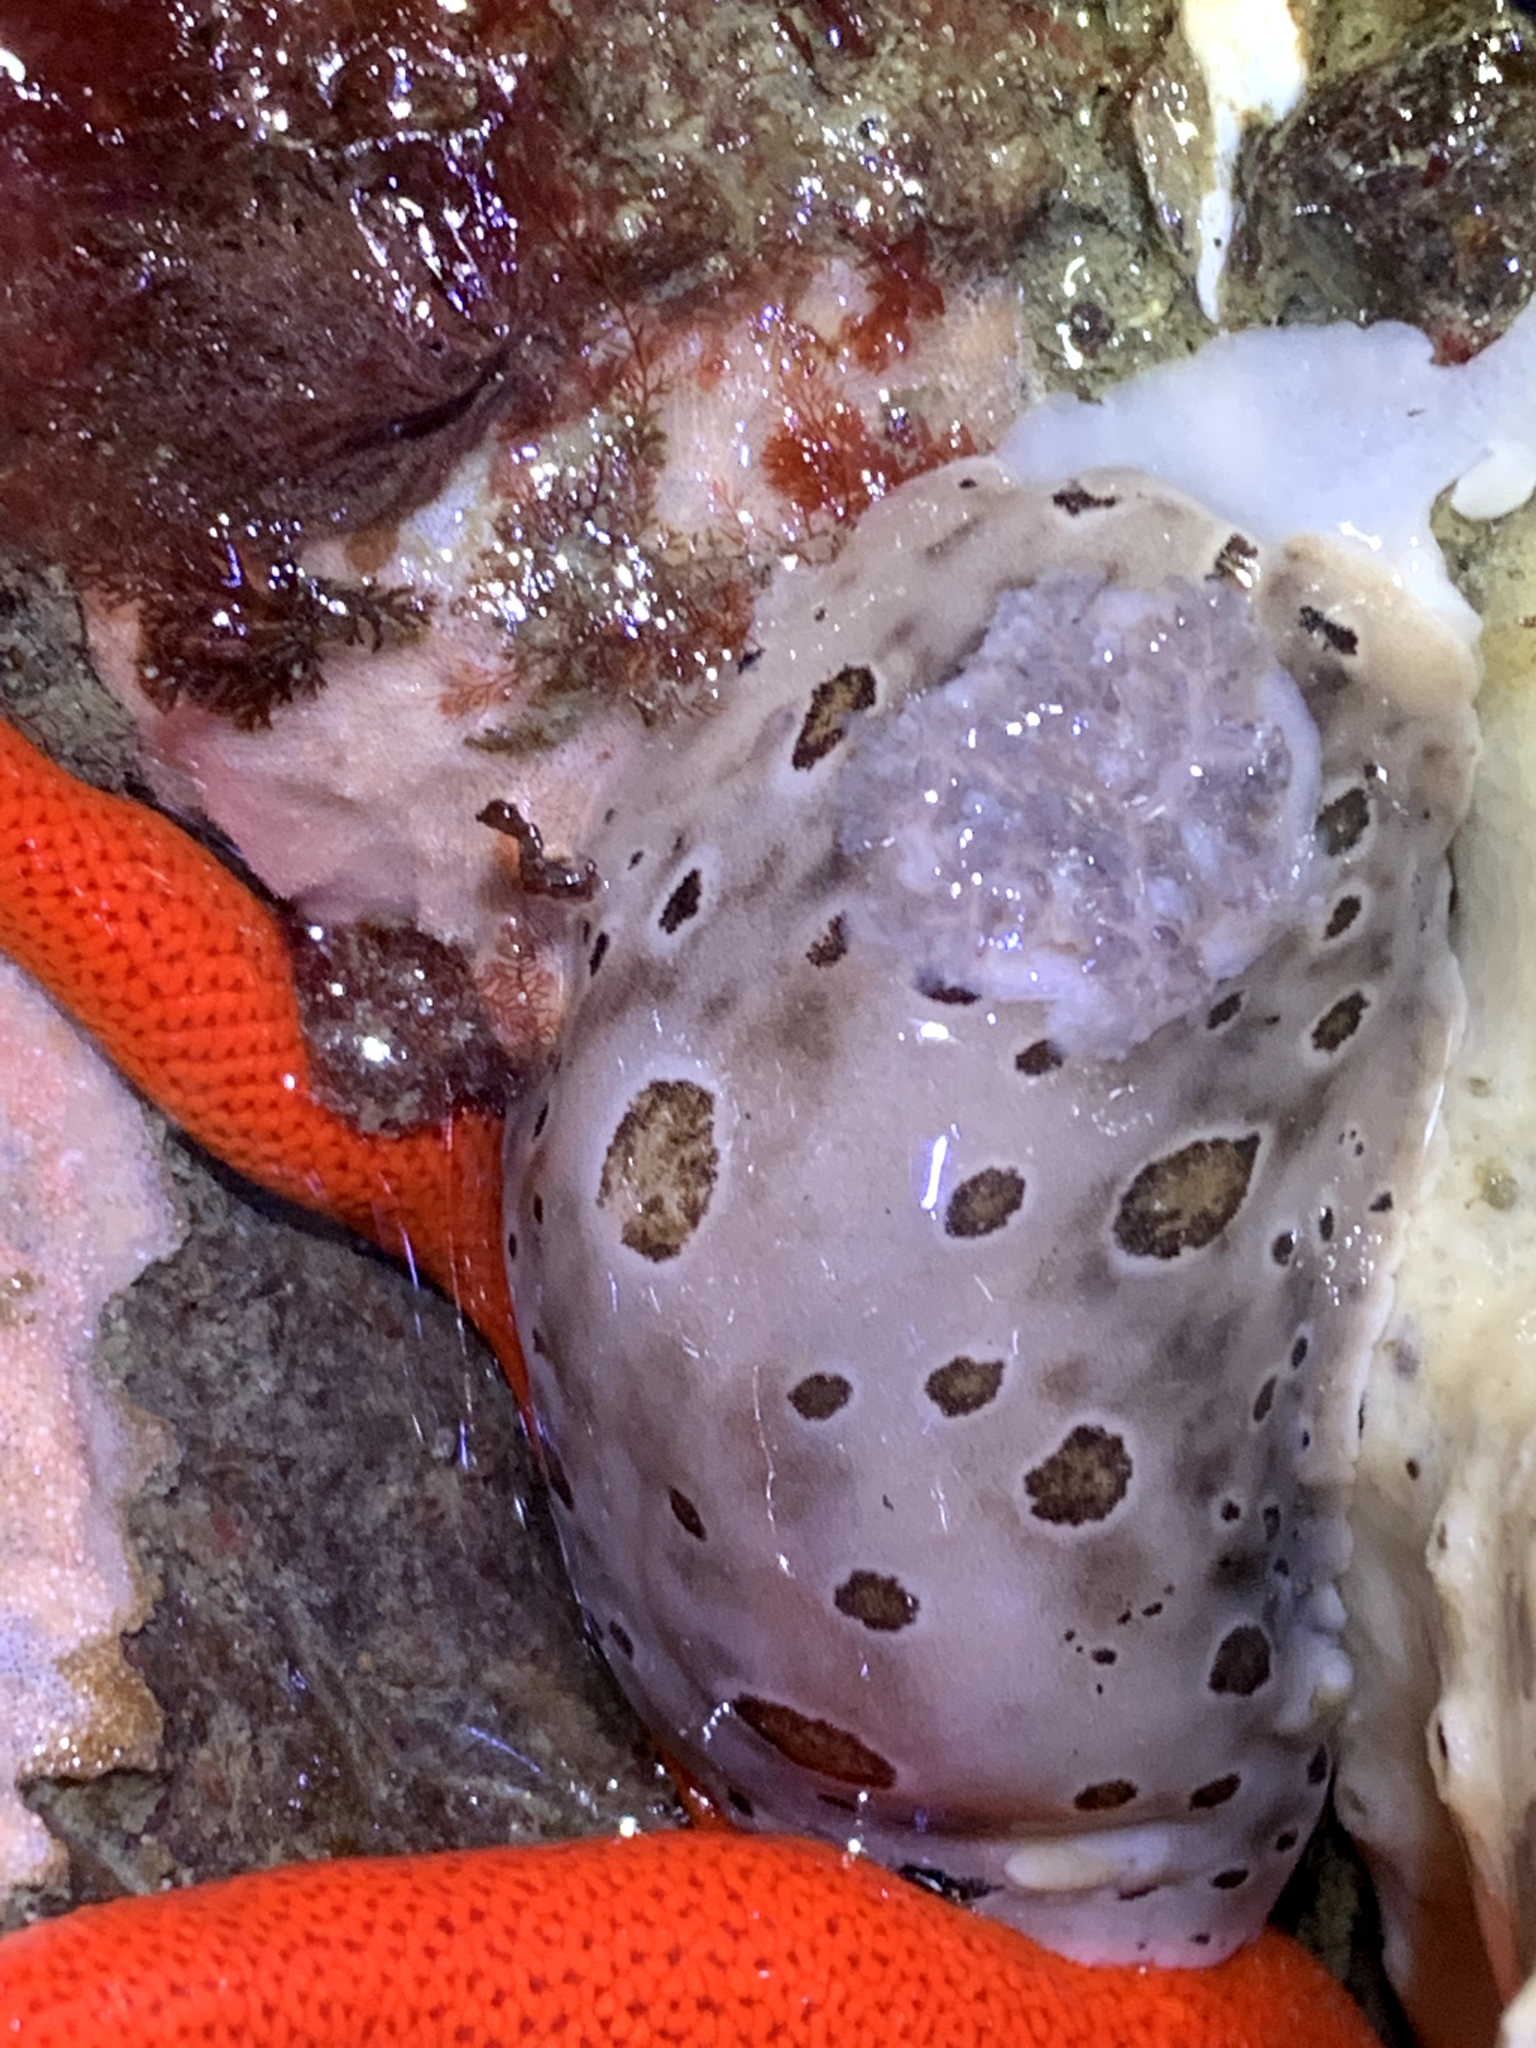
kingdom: Animalia
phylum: Mollusca
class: Gastropoda
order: Nudibranchia
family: Discodorididae
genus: Diaulula
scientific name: Diaulula odonoghuei
